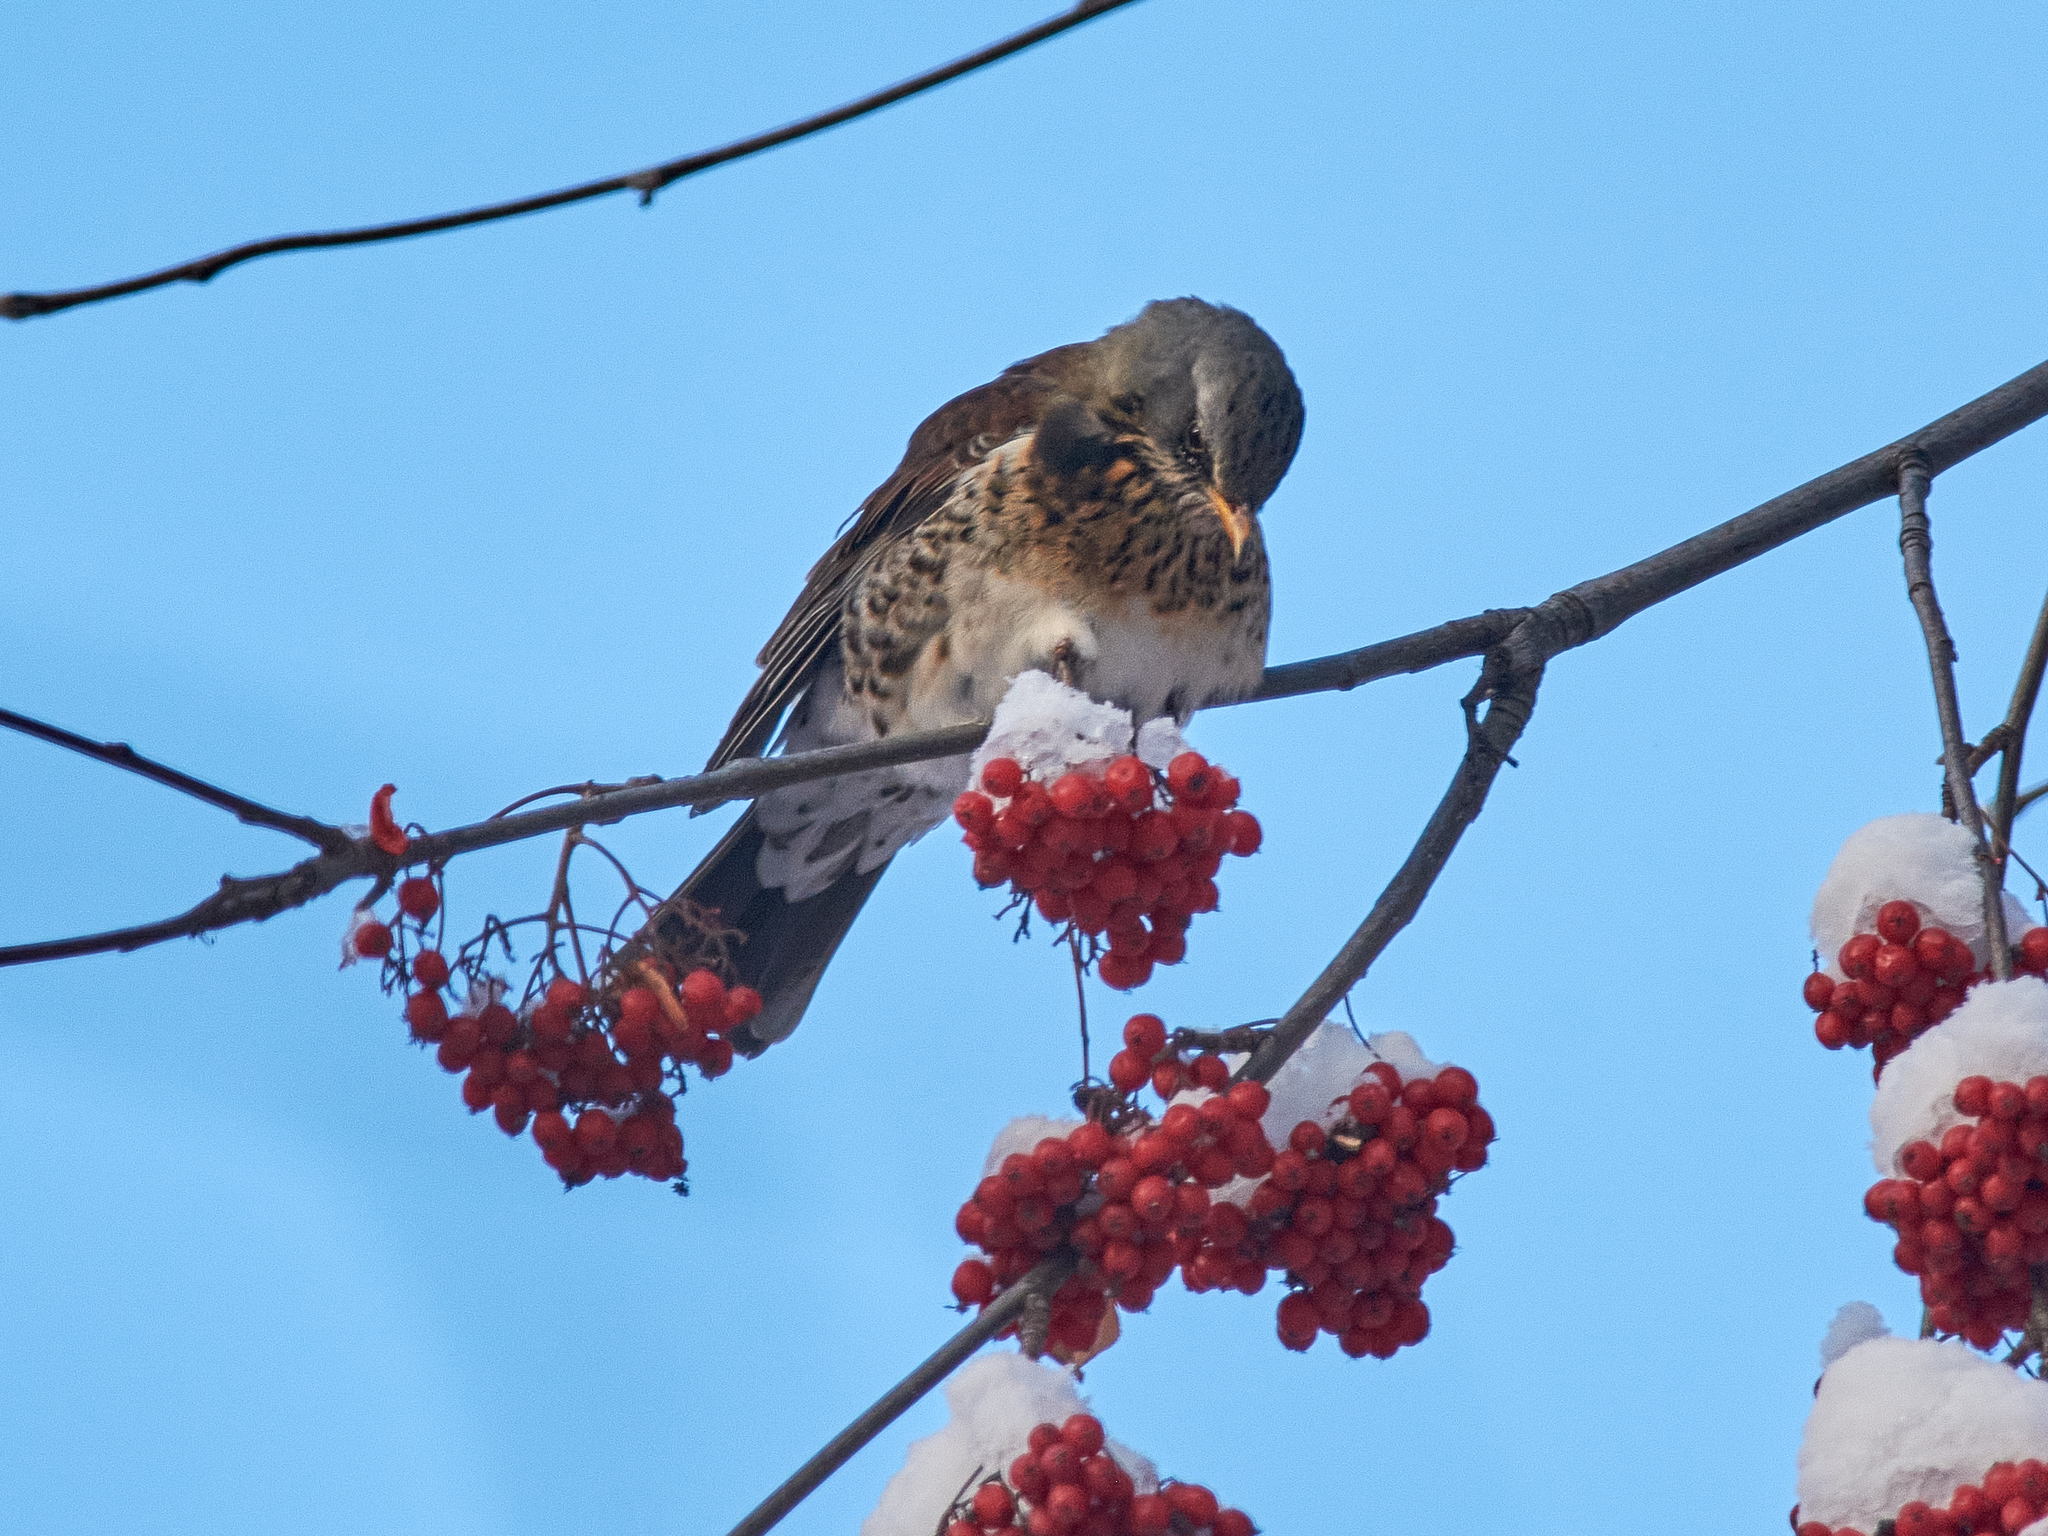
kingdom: Animalia
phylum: Chordata
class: Aves
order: Passeriformes
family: Turdidae
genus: Turdus
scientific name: Turdus pilaris
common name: Fieldfare
